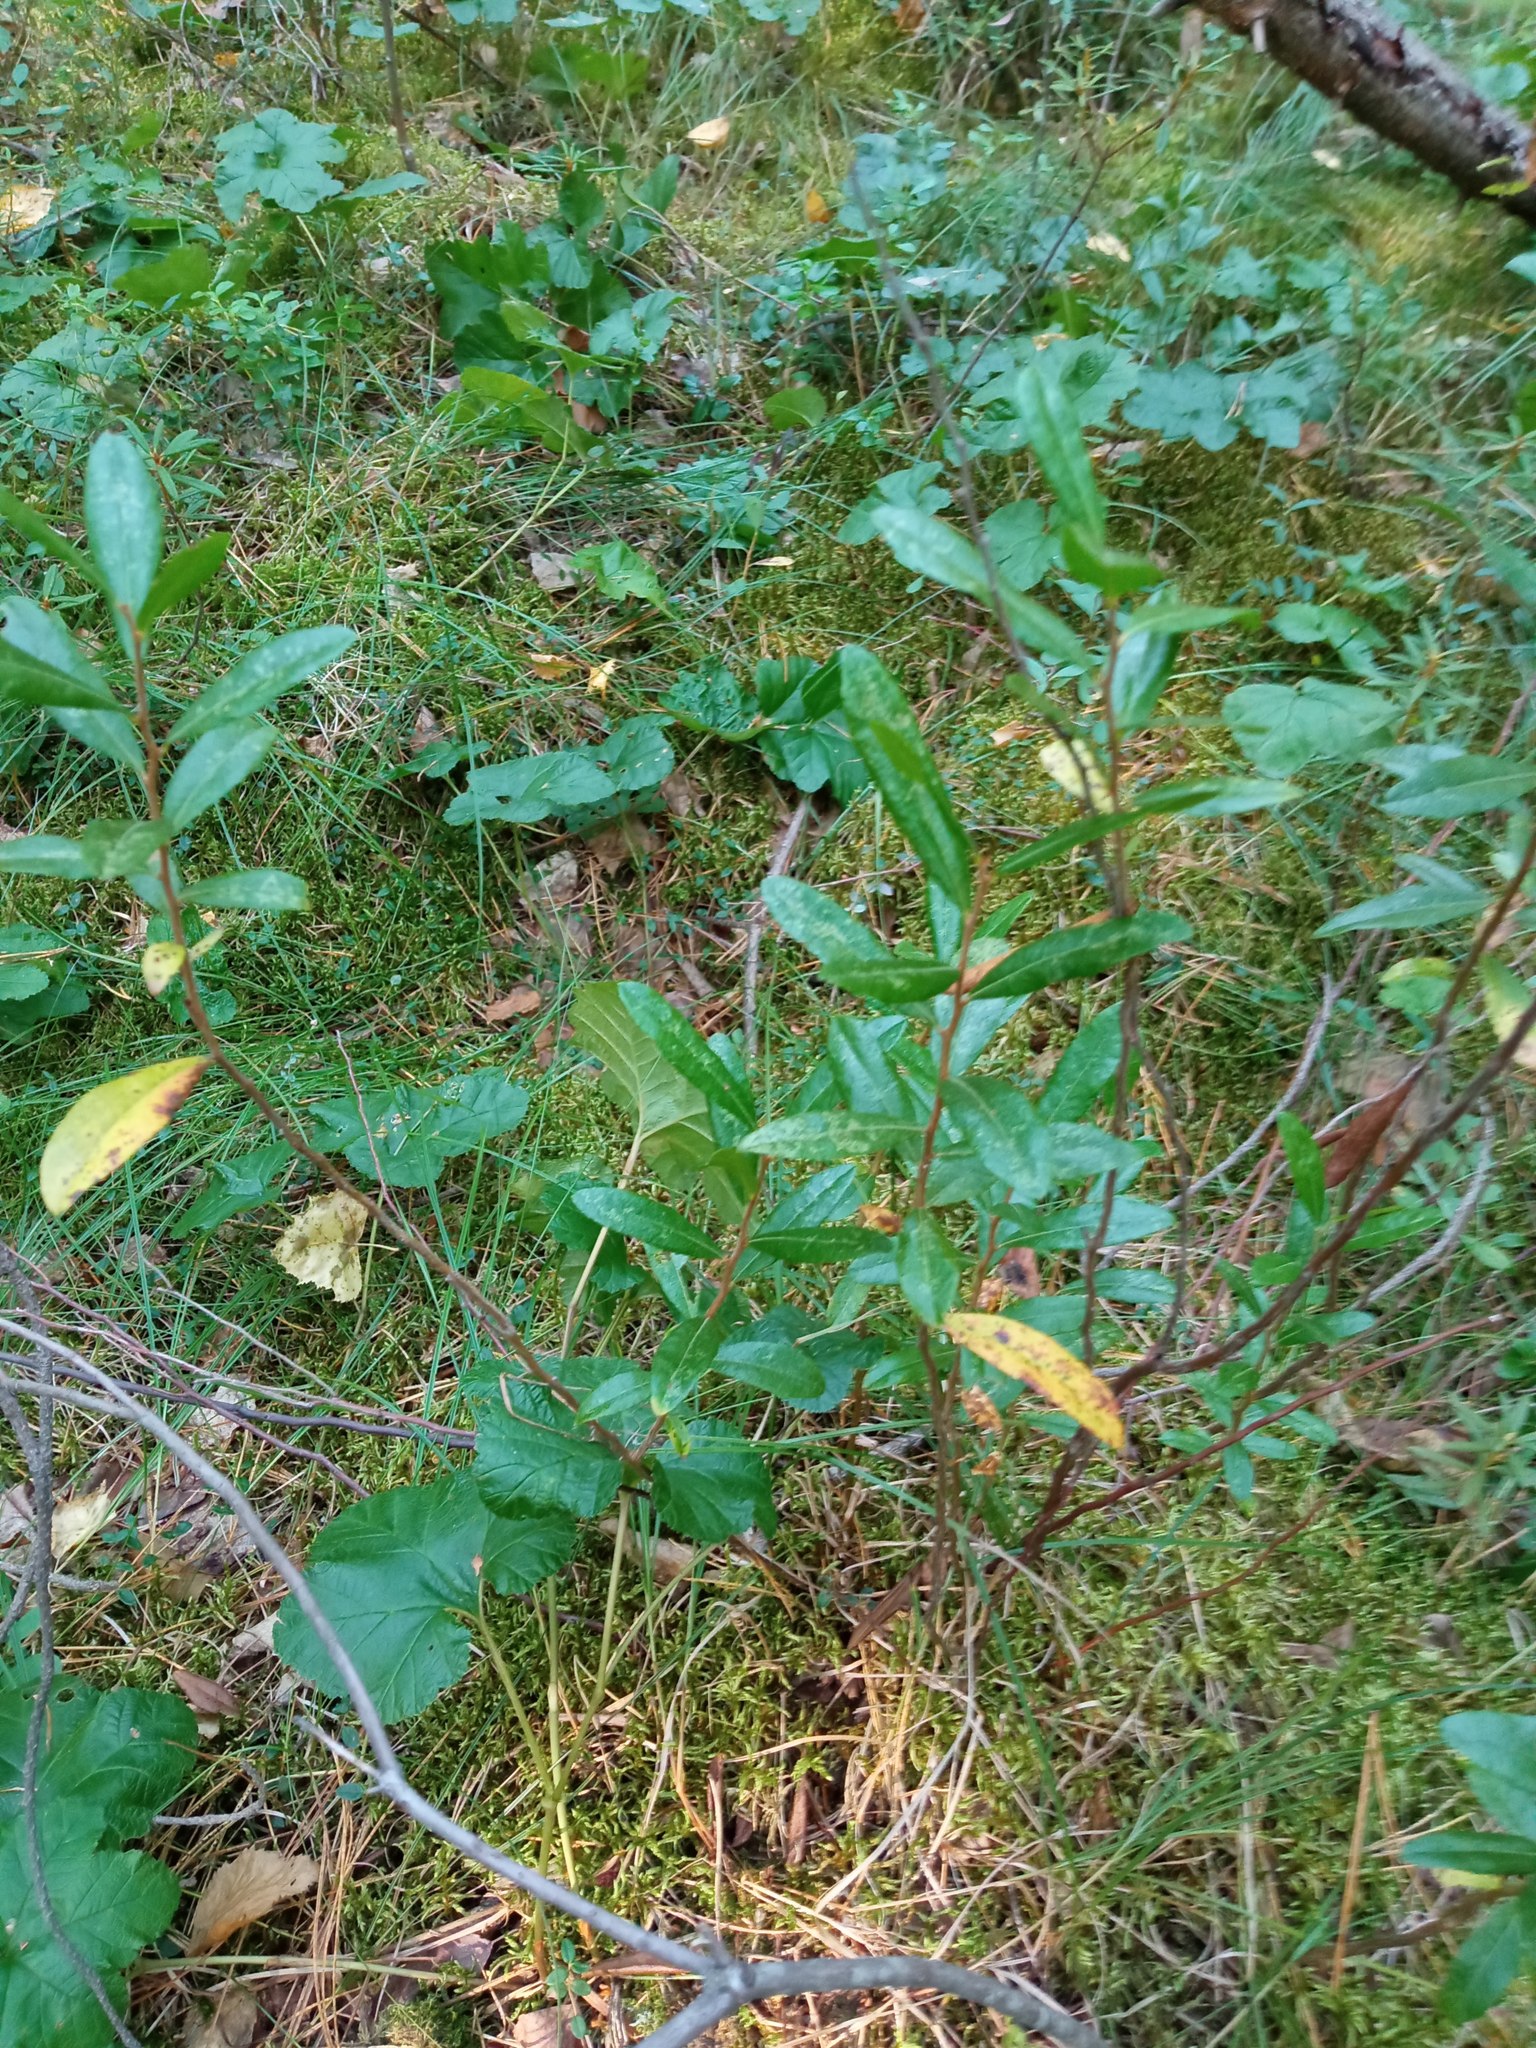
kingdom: Plantae
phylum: Tracheophyta
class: Magnoliopsida
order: Ericales
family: Ericaceae
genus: Chamaedaphne
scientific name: Chamaedaphne calyculata
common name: Leatherleaf
